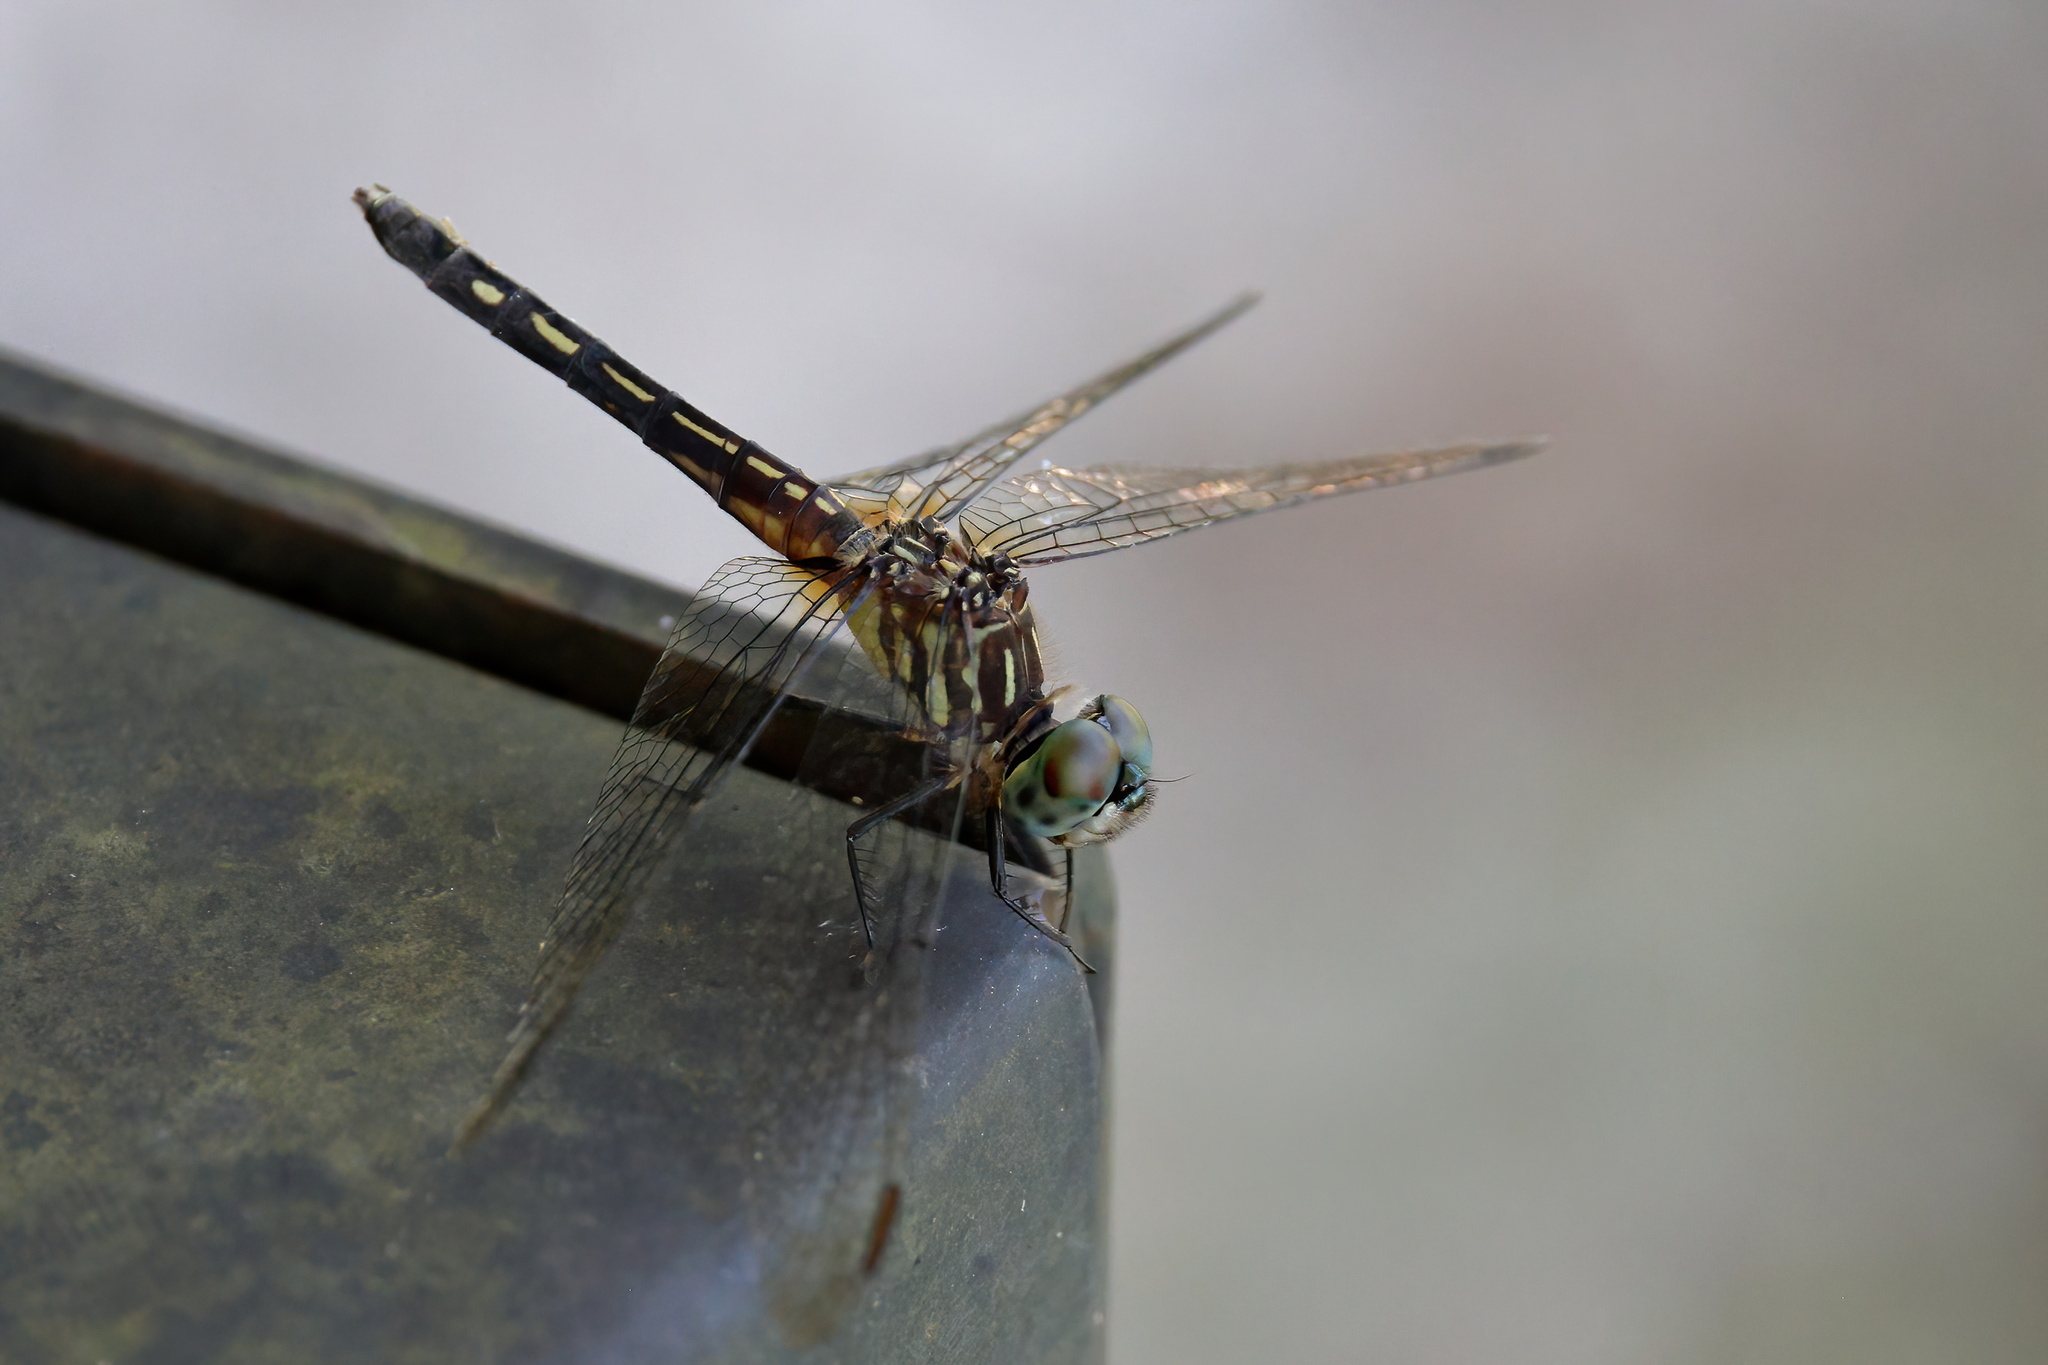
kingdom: Animalia
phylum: Arthropoda
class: Insecta
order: Odonata
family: Libellulidae
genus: Pachydiplax
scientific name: Pachydiplax longipennis
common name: Blue dasher
